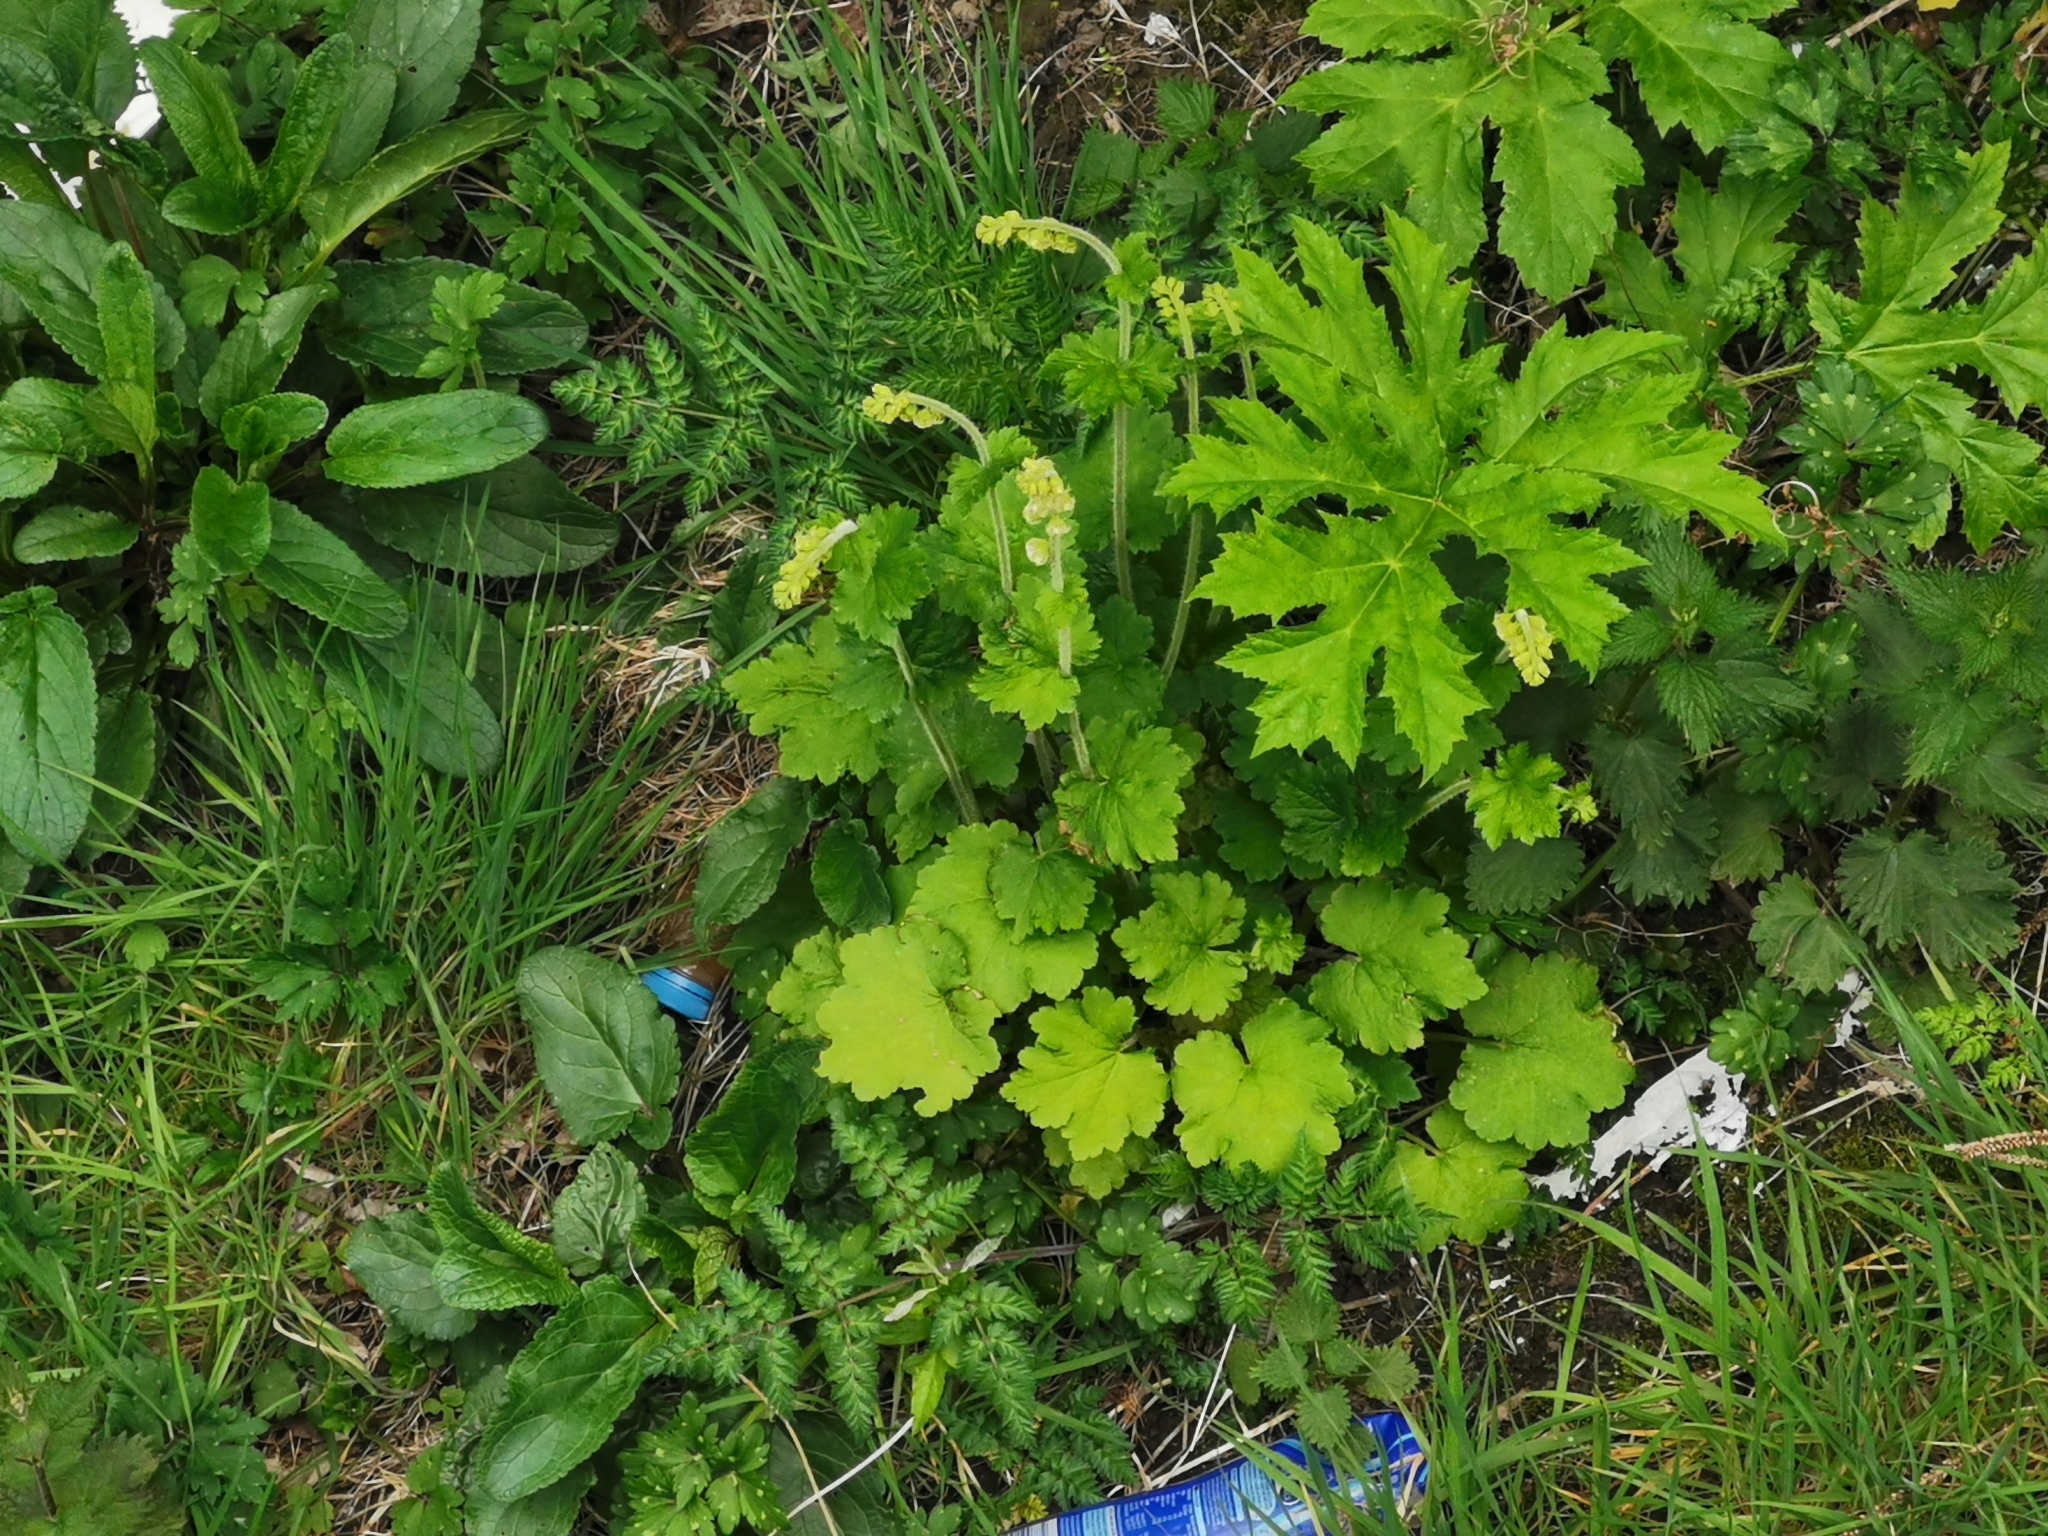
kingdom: Plantae
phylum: Tracheophyta
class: Magnoliopsida
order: Saxifragales
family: Saxifragaceae
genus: Tellima
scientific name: Tellima grandiflora
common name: Fringecups
